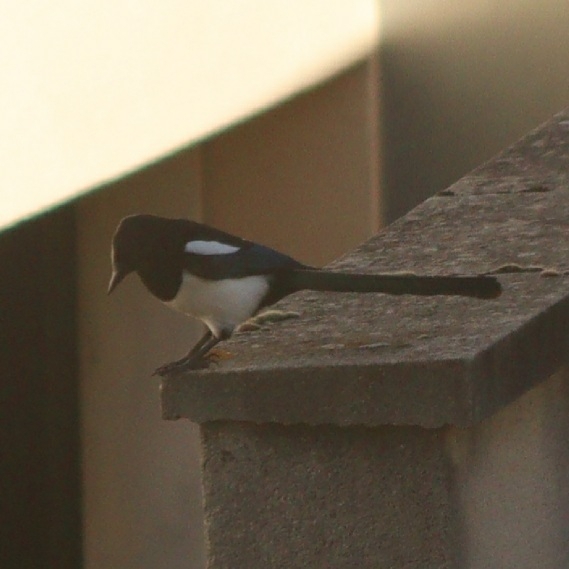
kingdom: Animalia
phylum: Chordata
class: Aves
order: Passeriformes
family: Corvidae
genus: Pica
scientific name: Pica pica
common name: Eurasian magpie
